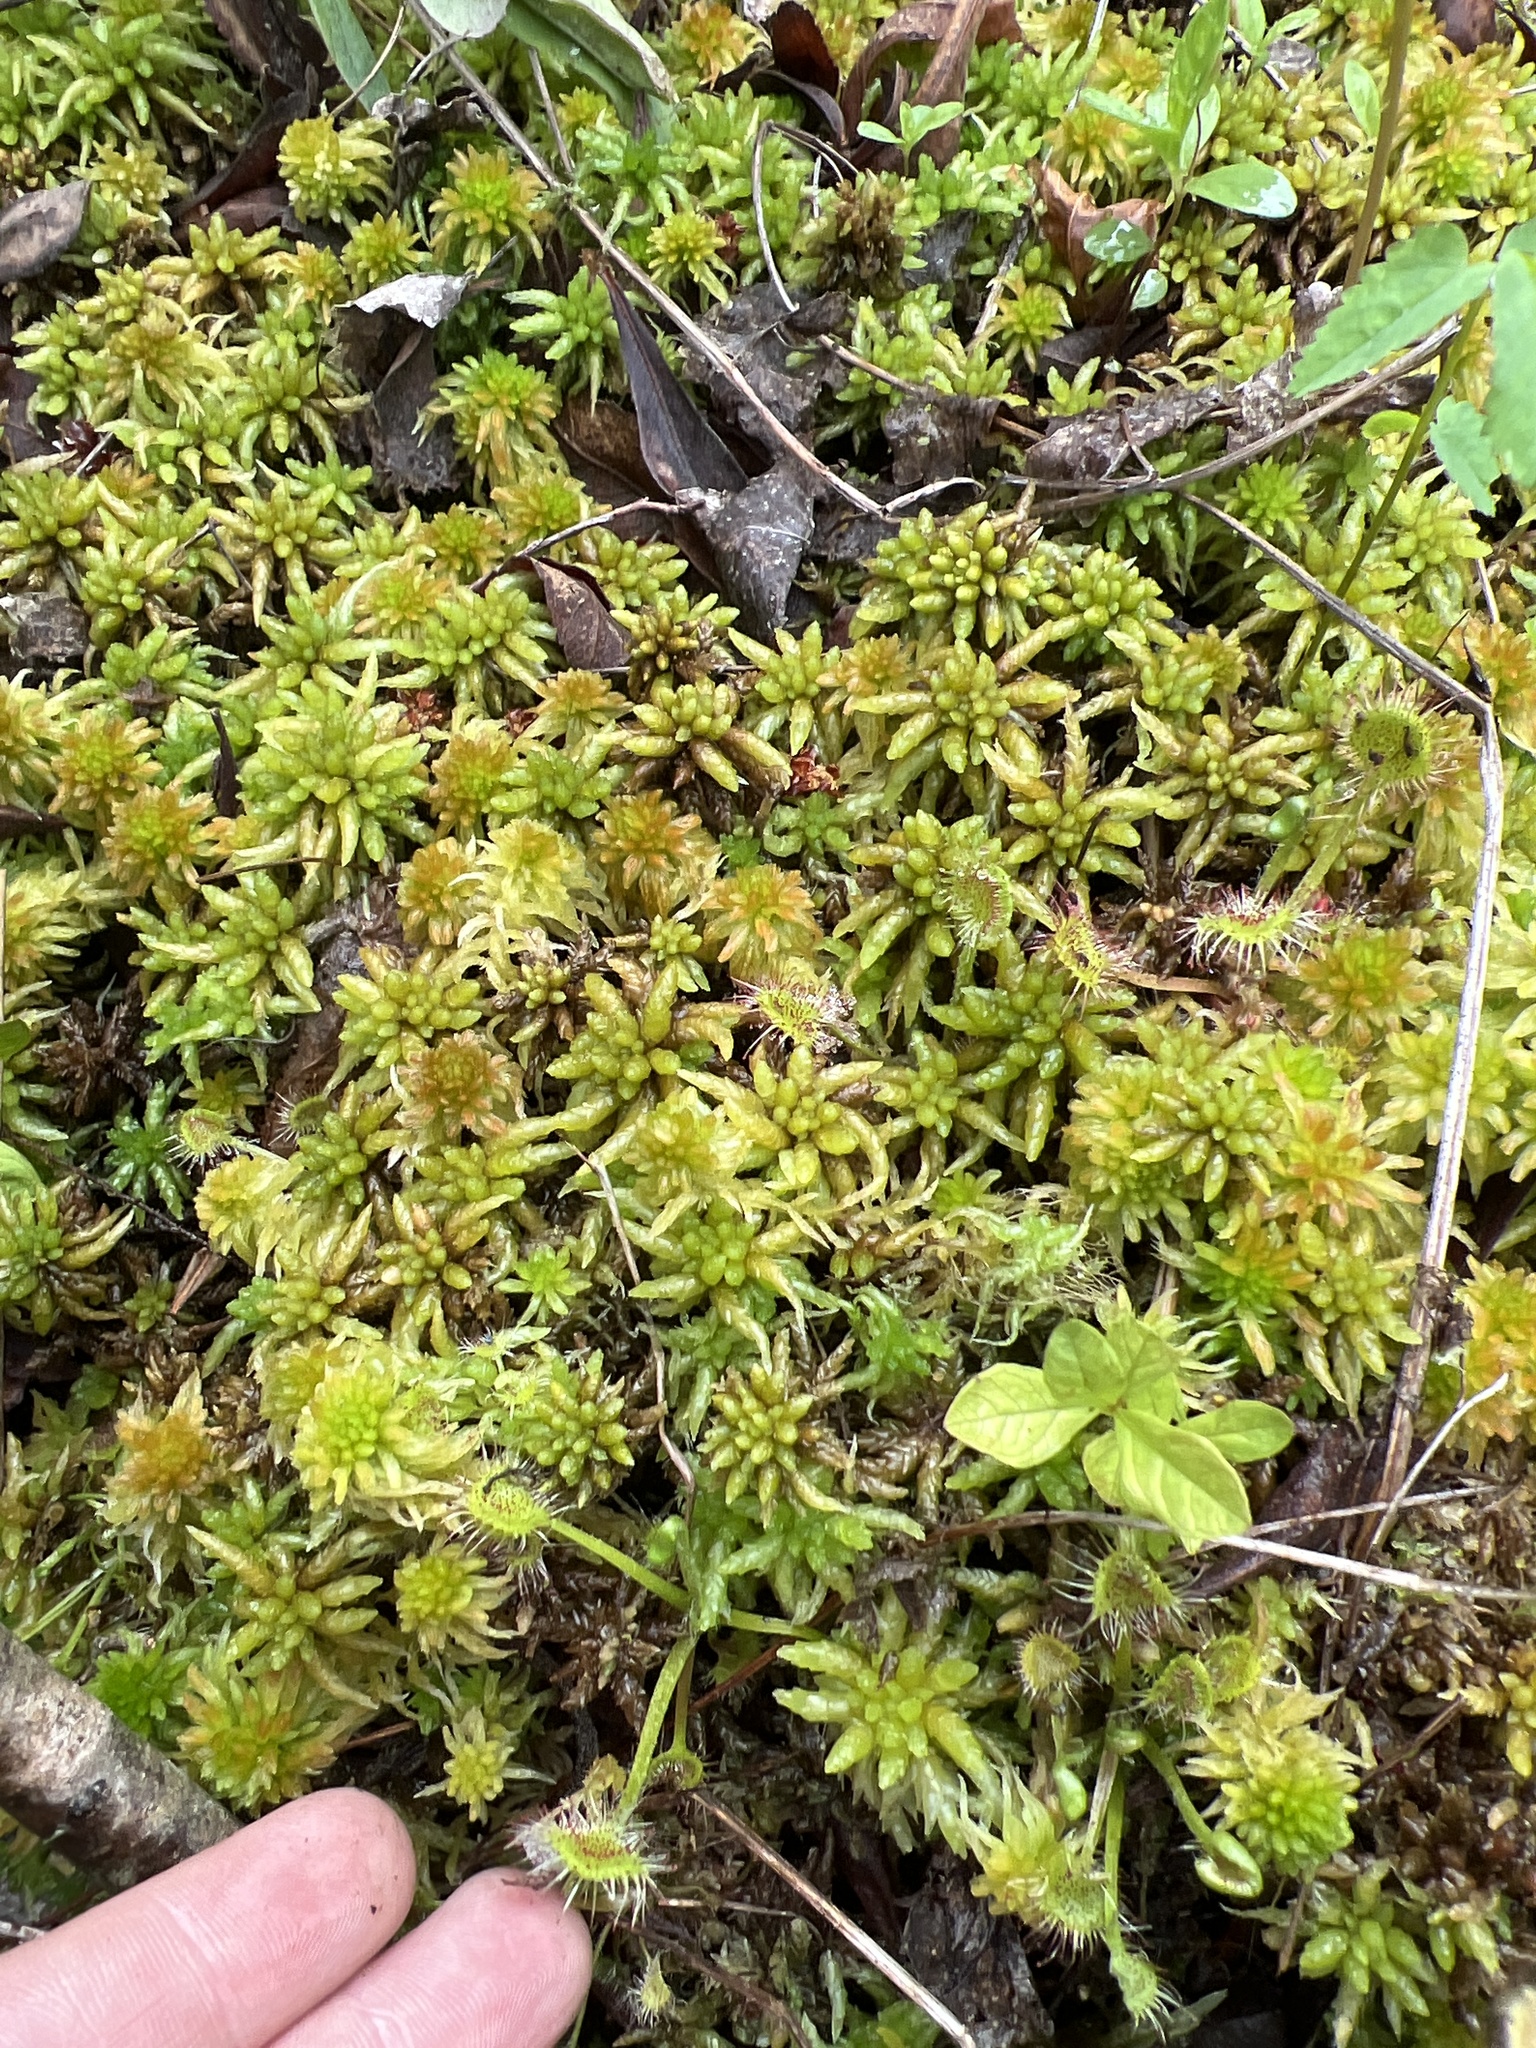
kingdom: Plantae
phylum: Tracheophyta
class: Magnoliopsida
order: Caryophyllales
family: Droseraceae
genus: Drosera
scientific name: Drosera rotundifolia
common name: Round-leaved sundew
